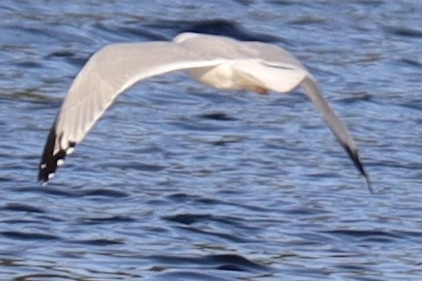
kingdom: Animalia
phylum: Chordata
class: Aves
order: Charadriiformes
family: Laridae
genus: Larus
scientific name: Larus delawarensis
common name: Ring-billed gull
